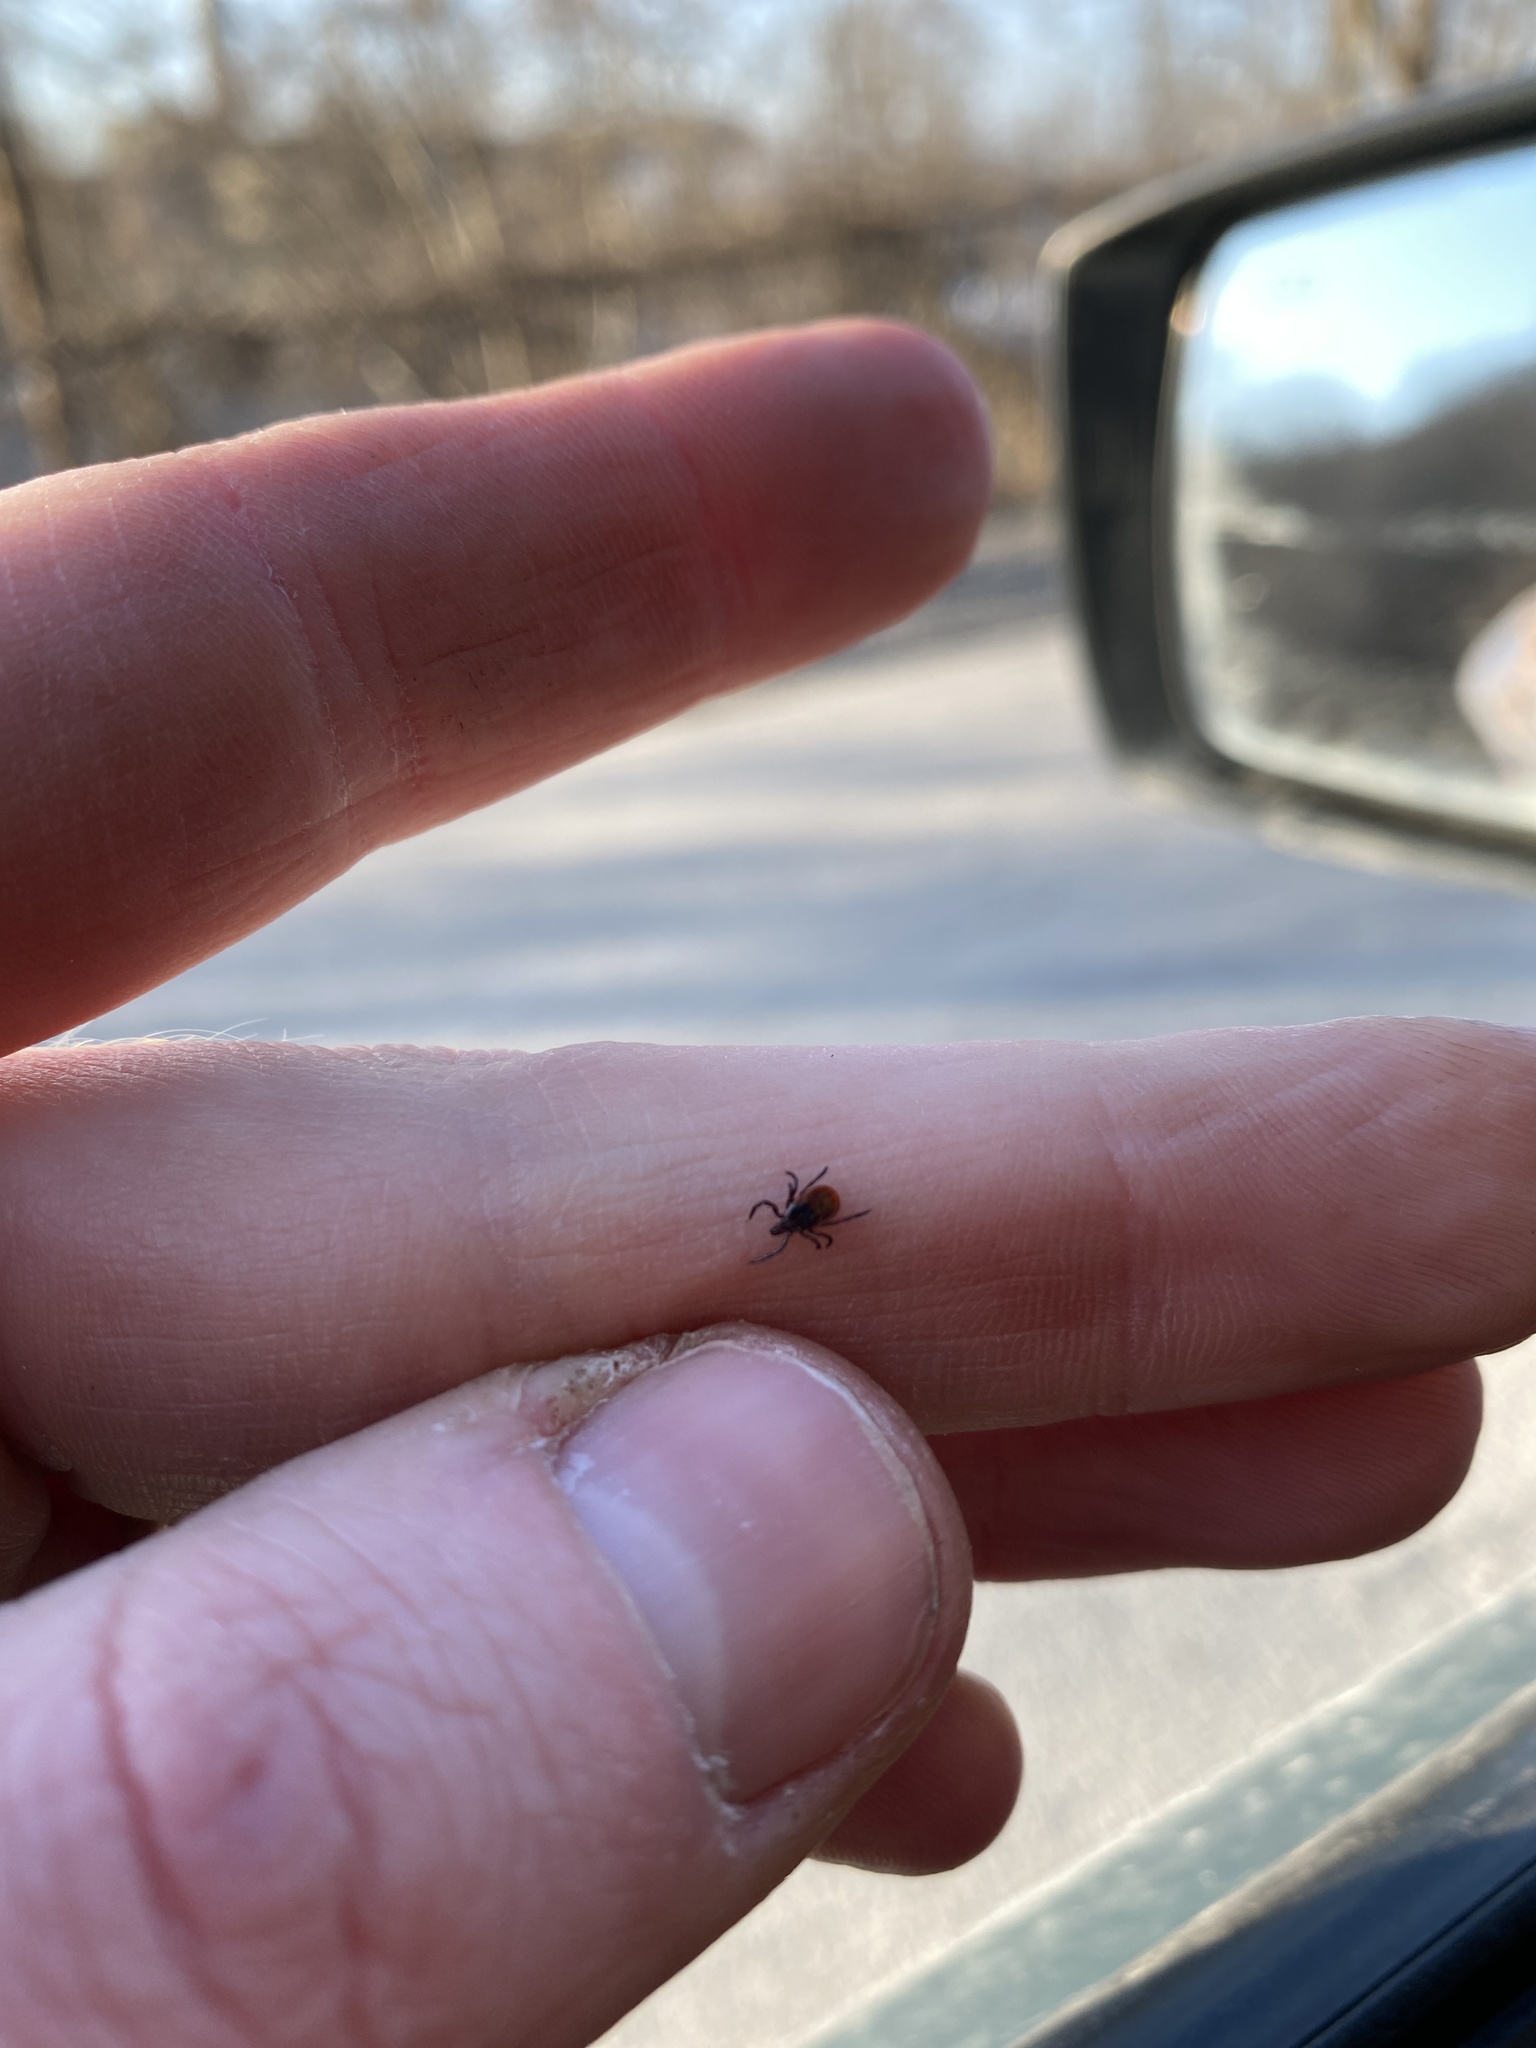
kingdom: Animalia
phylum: Arthropoda
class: Arachnida
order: Ixodida
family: Ixodidae
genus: Ixodes
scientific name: Ixodes scapularis
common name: Black legged tick
